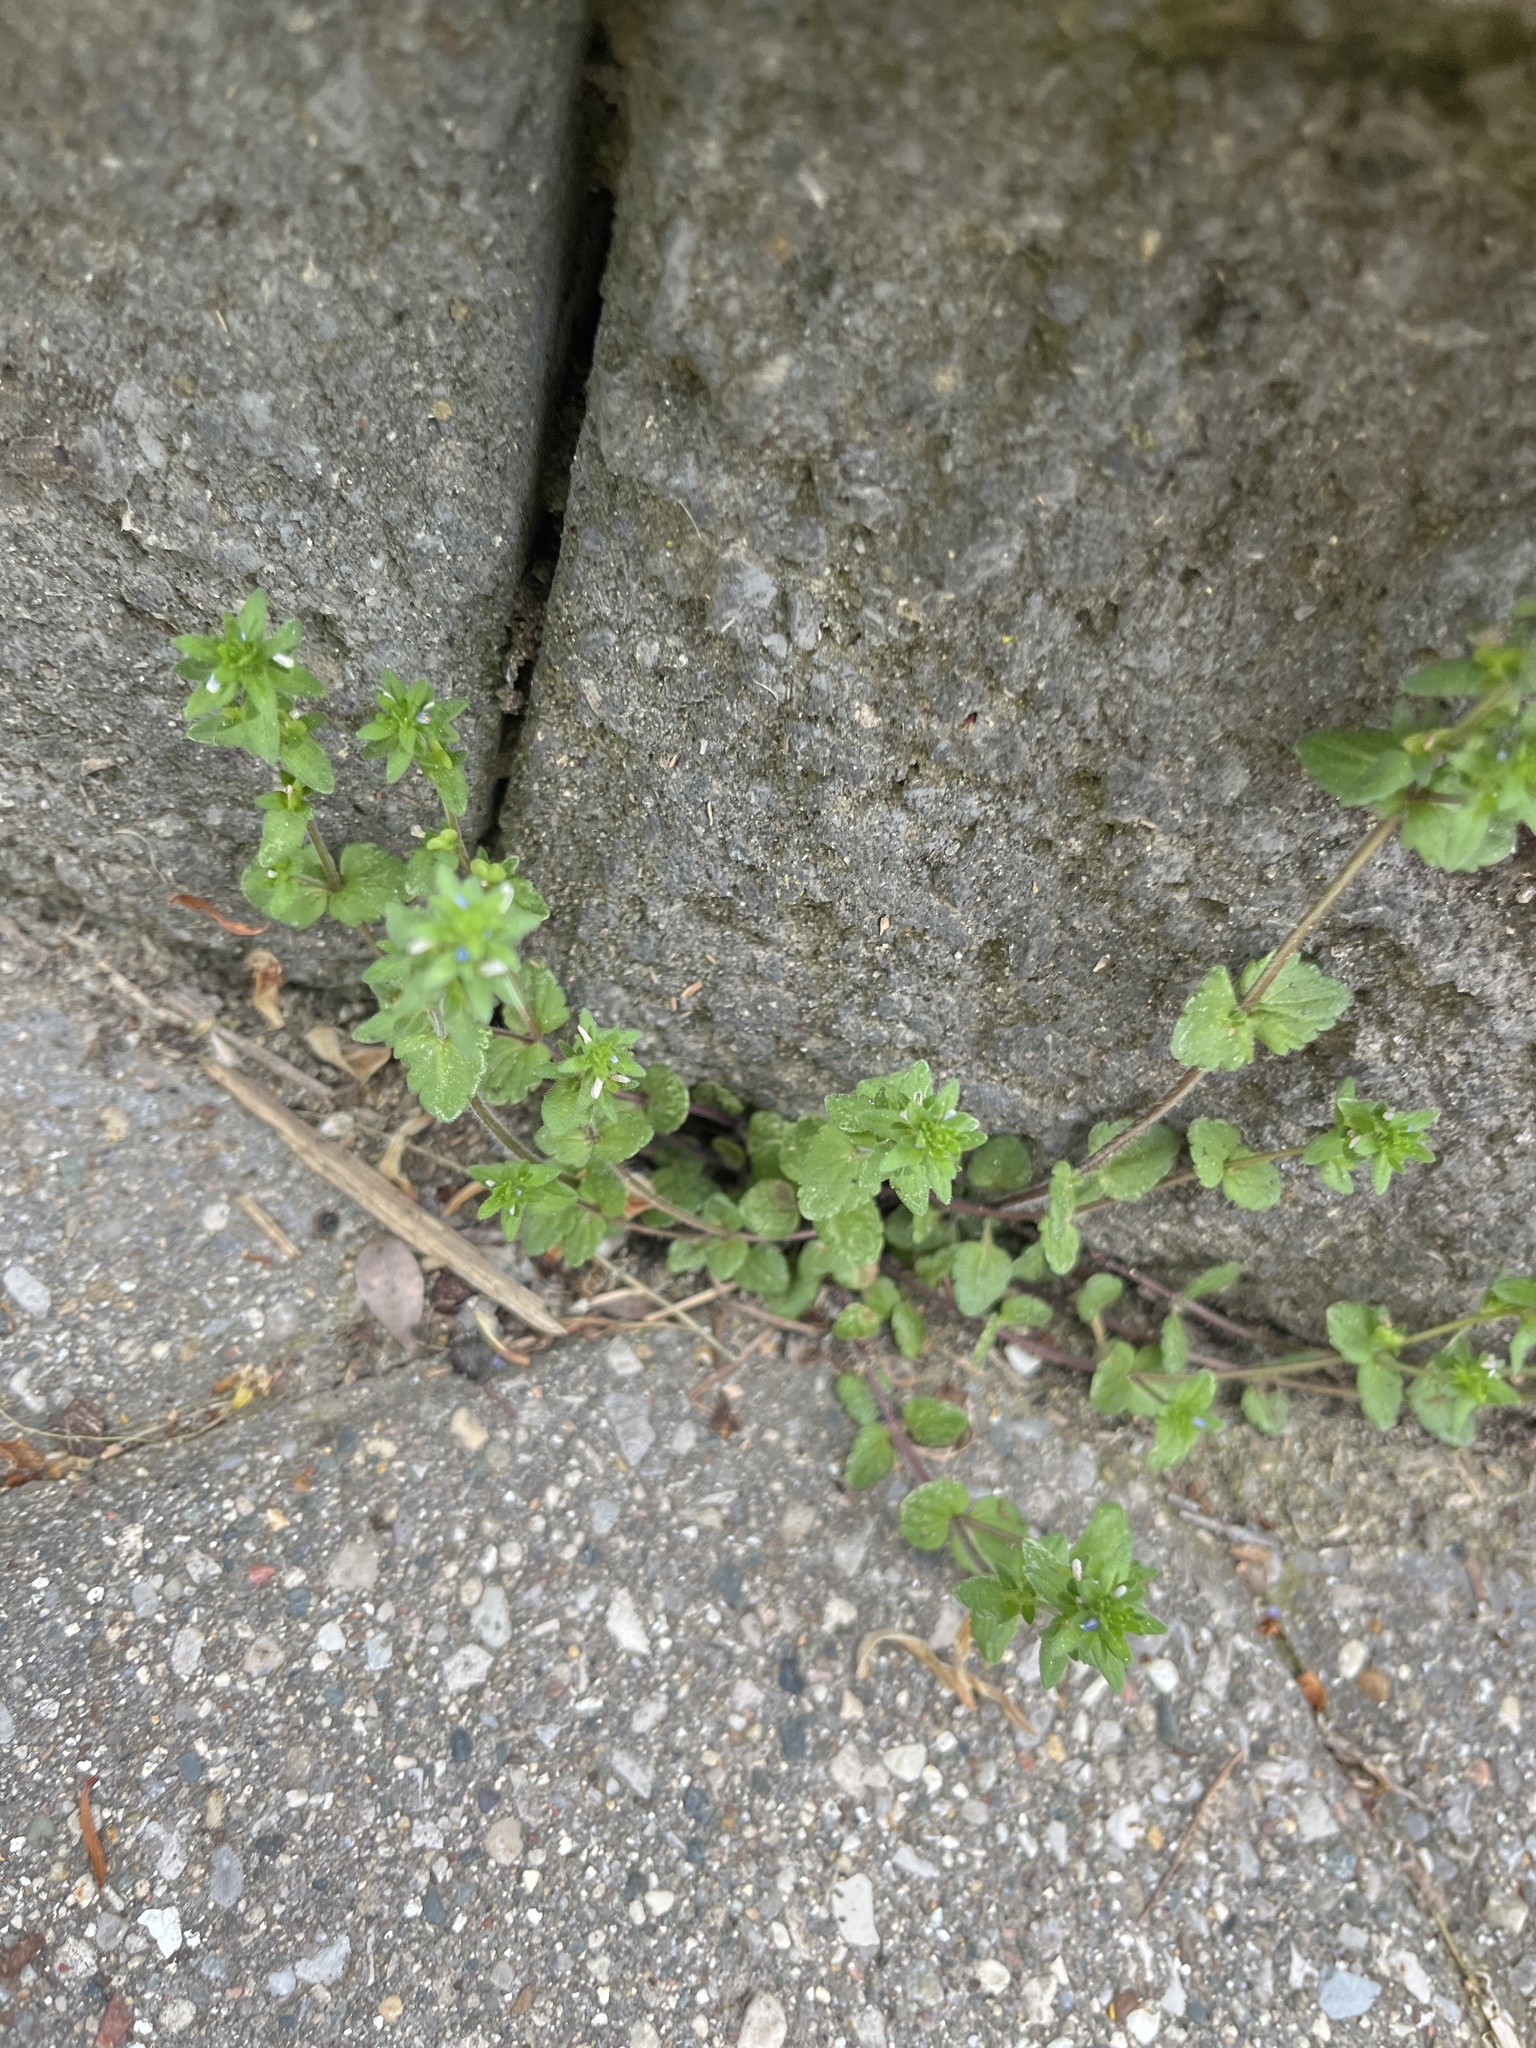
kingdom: Plantae
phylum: Tracheophyta
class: Magnoliopsida
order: Lamiales
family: Plantaginaceae
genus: Veronica
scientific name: Veronica arvensis
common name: Corn speedwell
